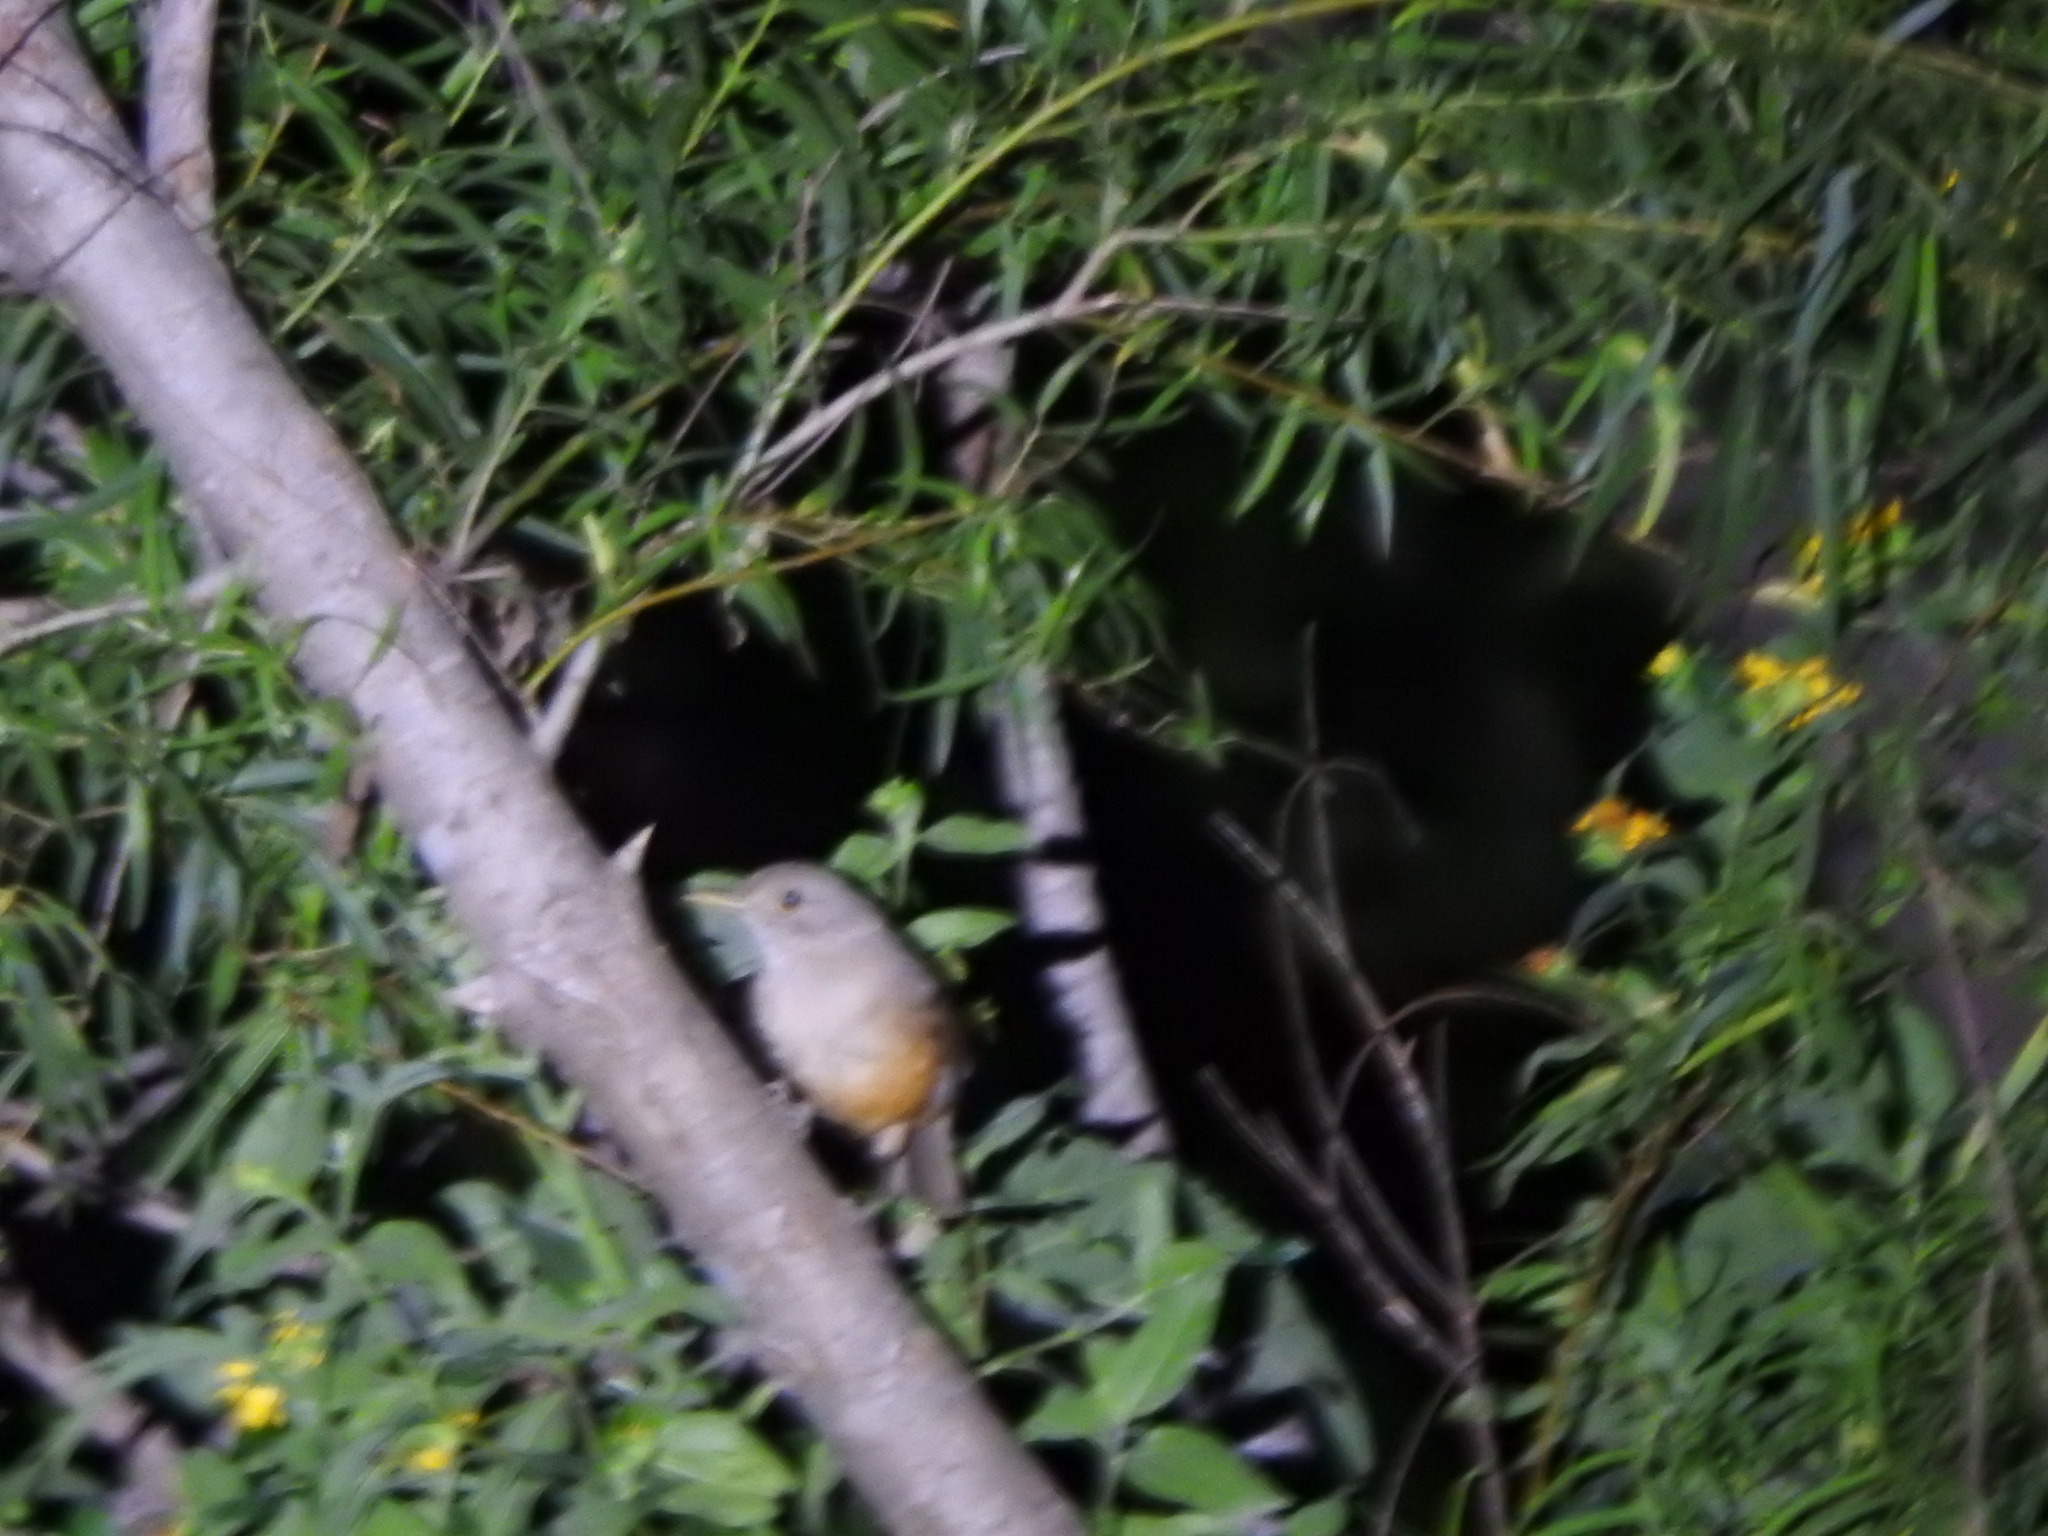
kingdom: Animalia
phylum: Chordata
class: Aves
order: Passeriformes
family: Turdidae
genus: Turdus
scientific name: Turdus rufiventris
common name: Rufous-bellied thrush
